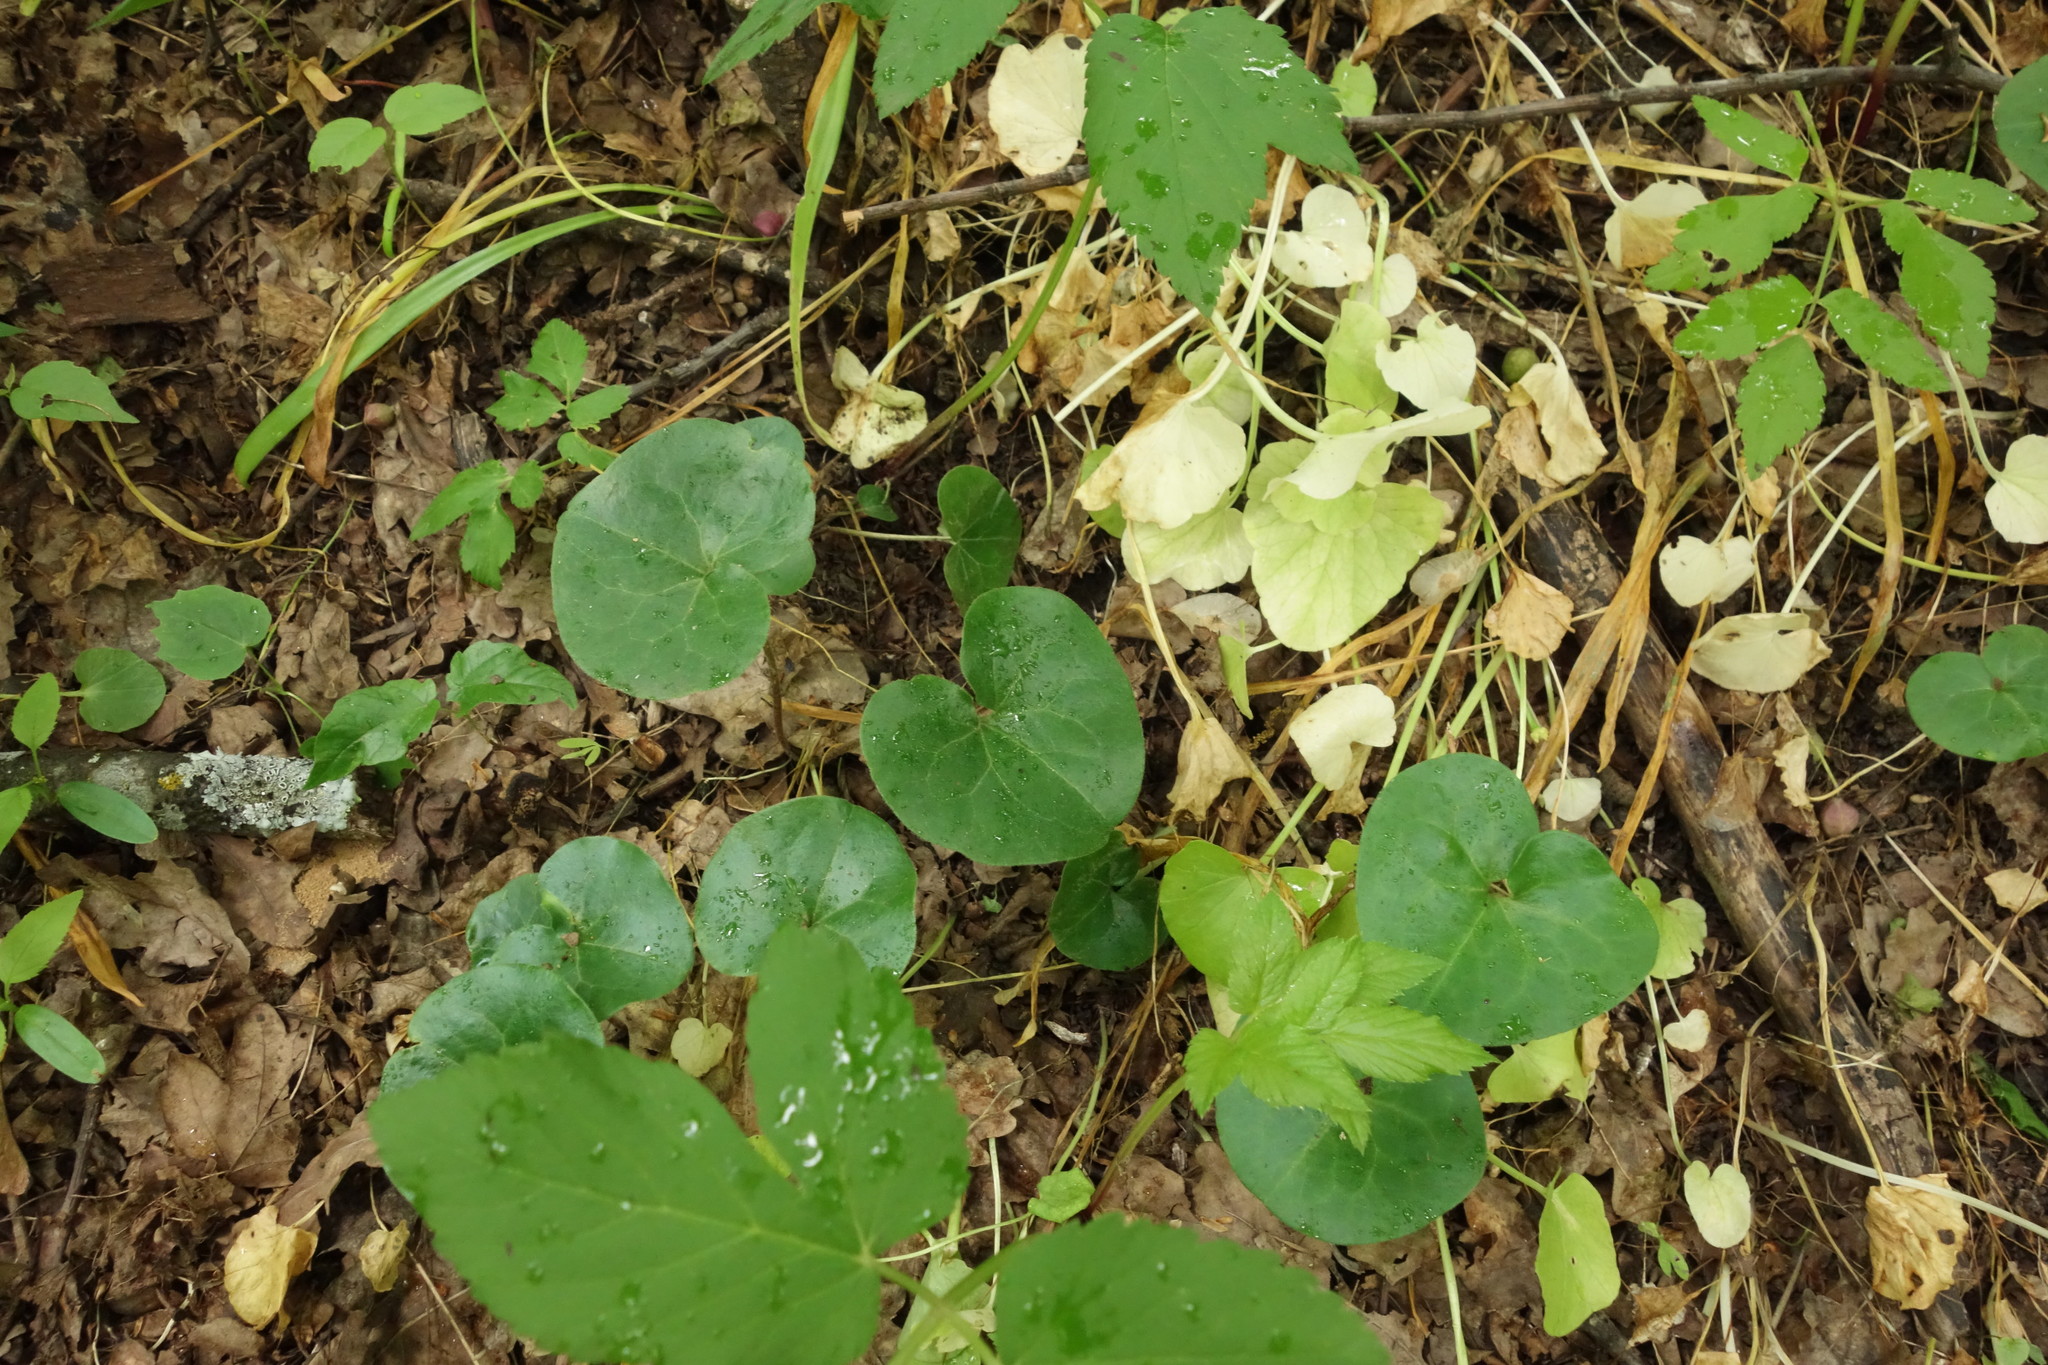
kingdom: Plantae
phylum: Tracheophyta
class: Magnoliopsida
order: Piperales
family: Aristolochiaceae
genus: Asarum
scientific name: Asarum europaeum
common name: Asarabacca
